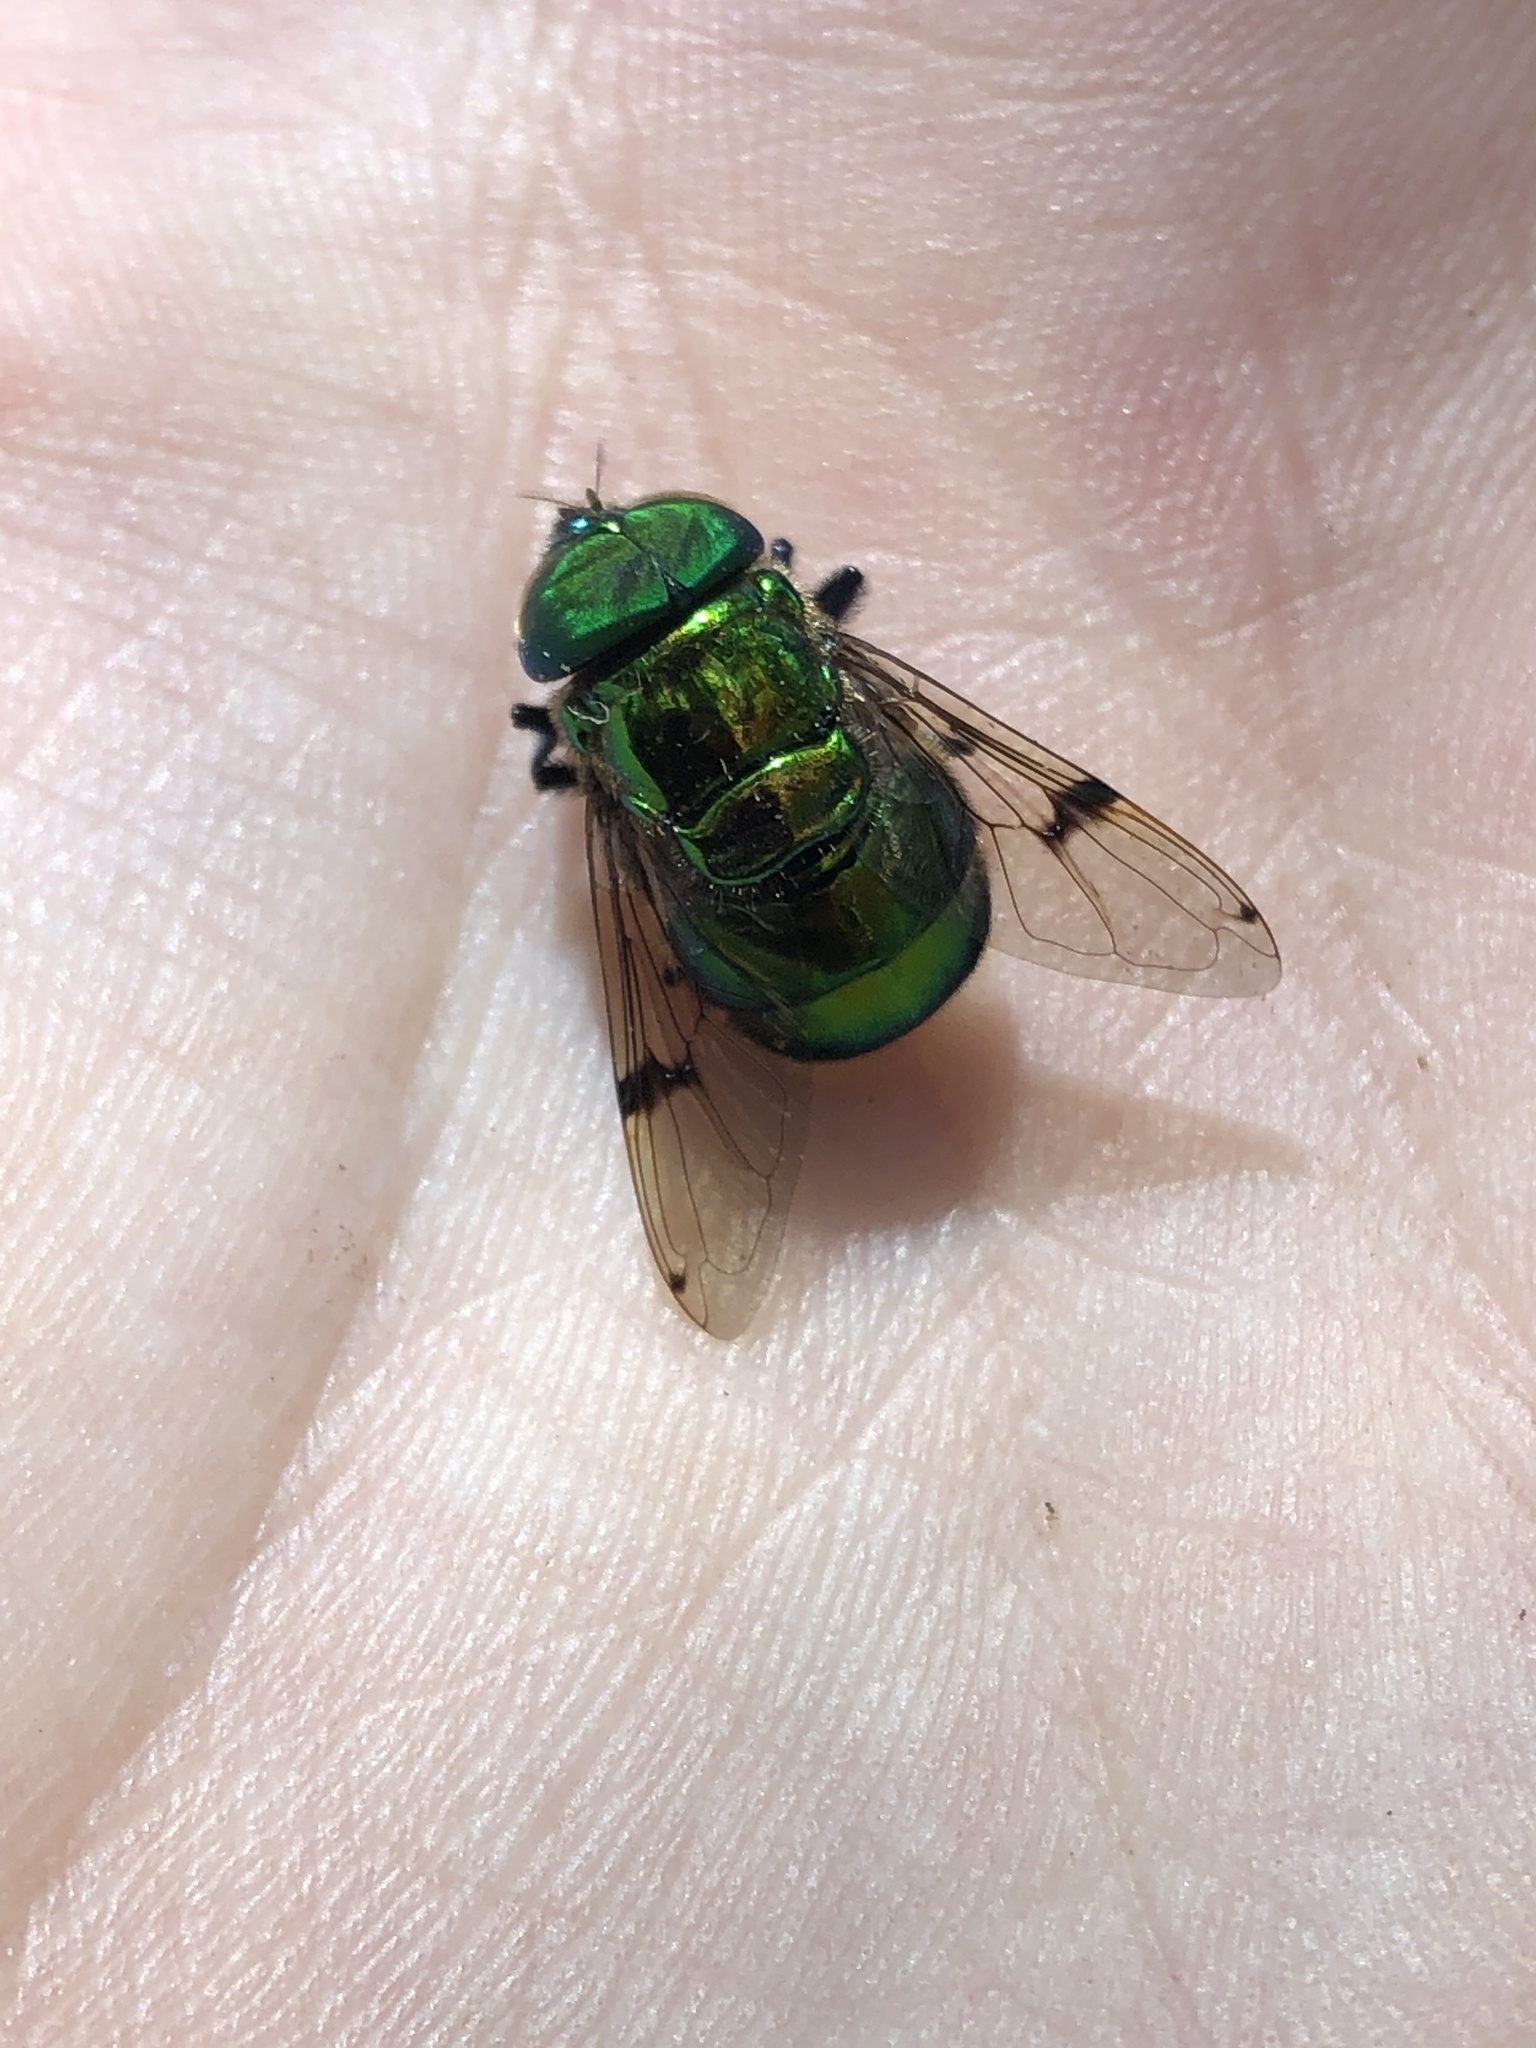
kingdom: Animalia
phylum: Arthropoda
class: Insecta
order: Diptera
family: Syrphidae
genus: Ornidia
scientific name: Ornidia major
